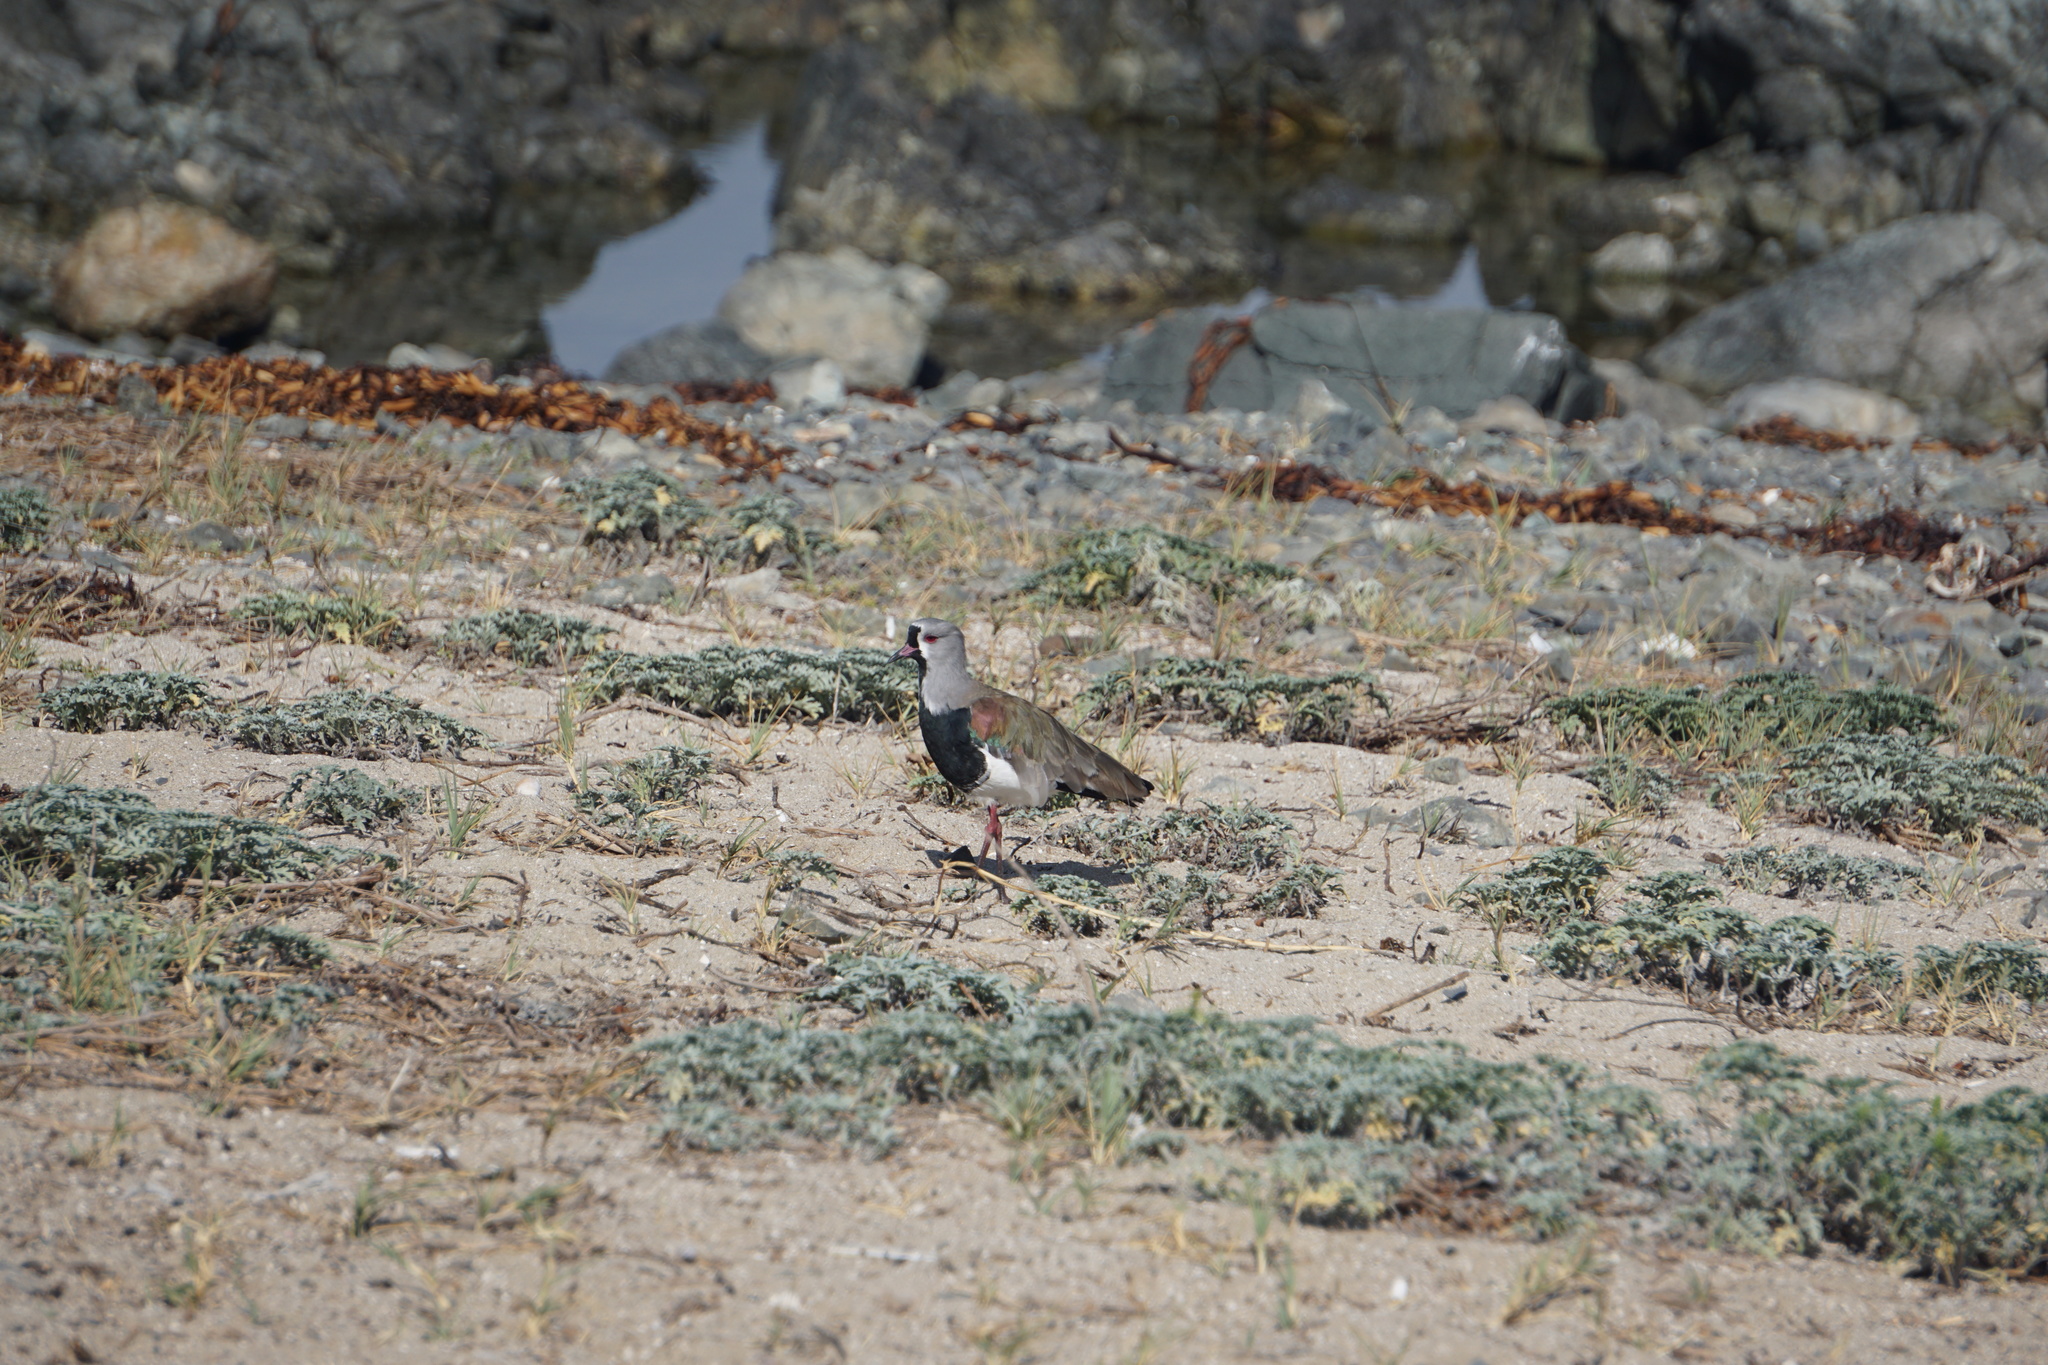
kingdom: Animalia
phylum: Chordata
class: Aves
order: Charadriiformes
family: Charadriidae
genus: Vanellus
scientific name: Vanellus chilensis
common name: Southern lapwing
